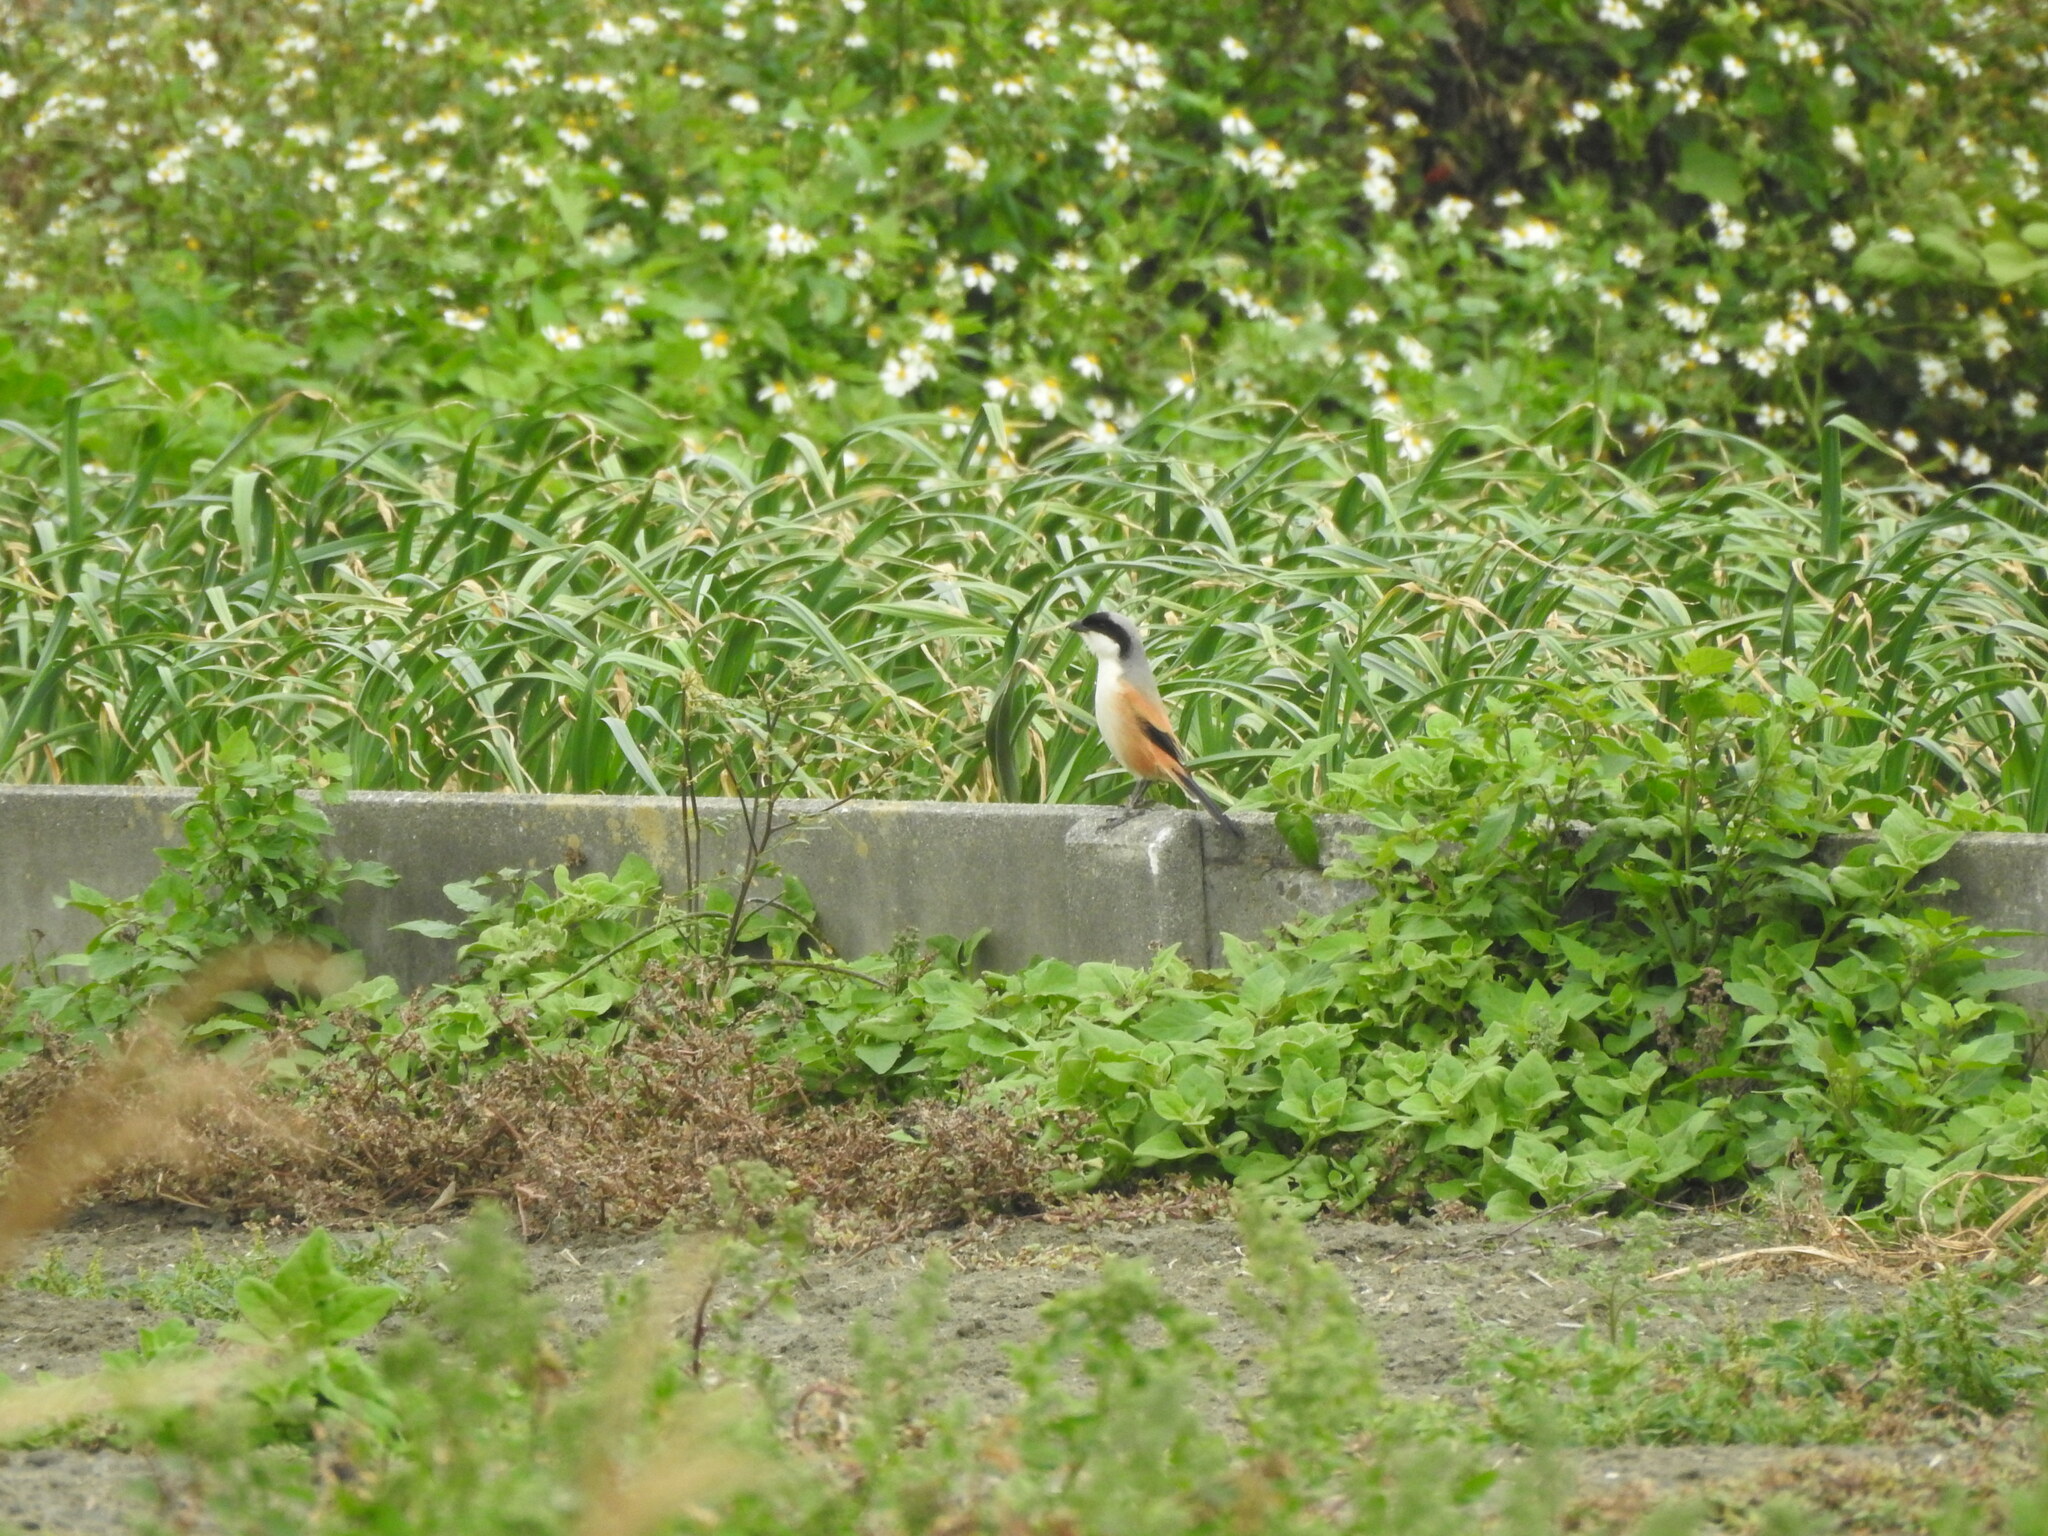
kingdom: Animalia
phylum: Chordata
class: Aves
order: Passeriformes
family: Laniidae
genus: Lanius
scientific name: Lanius schach
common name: Long-tailed shrike
